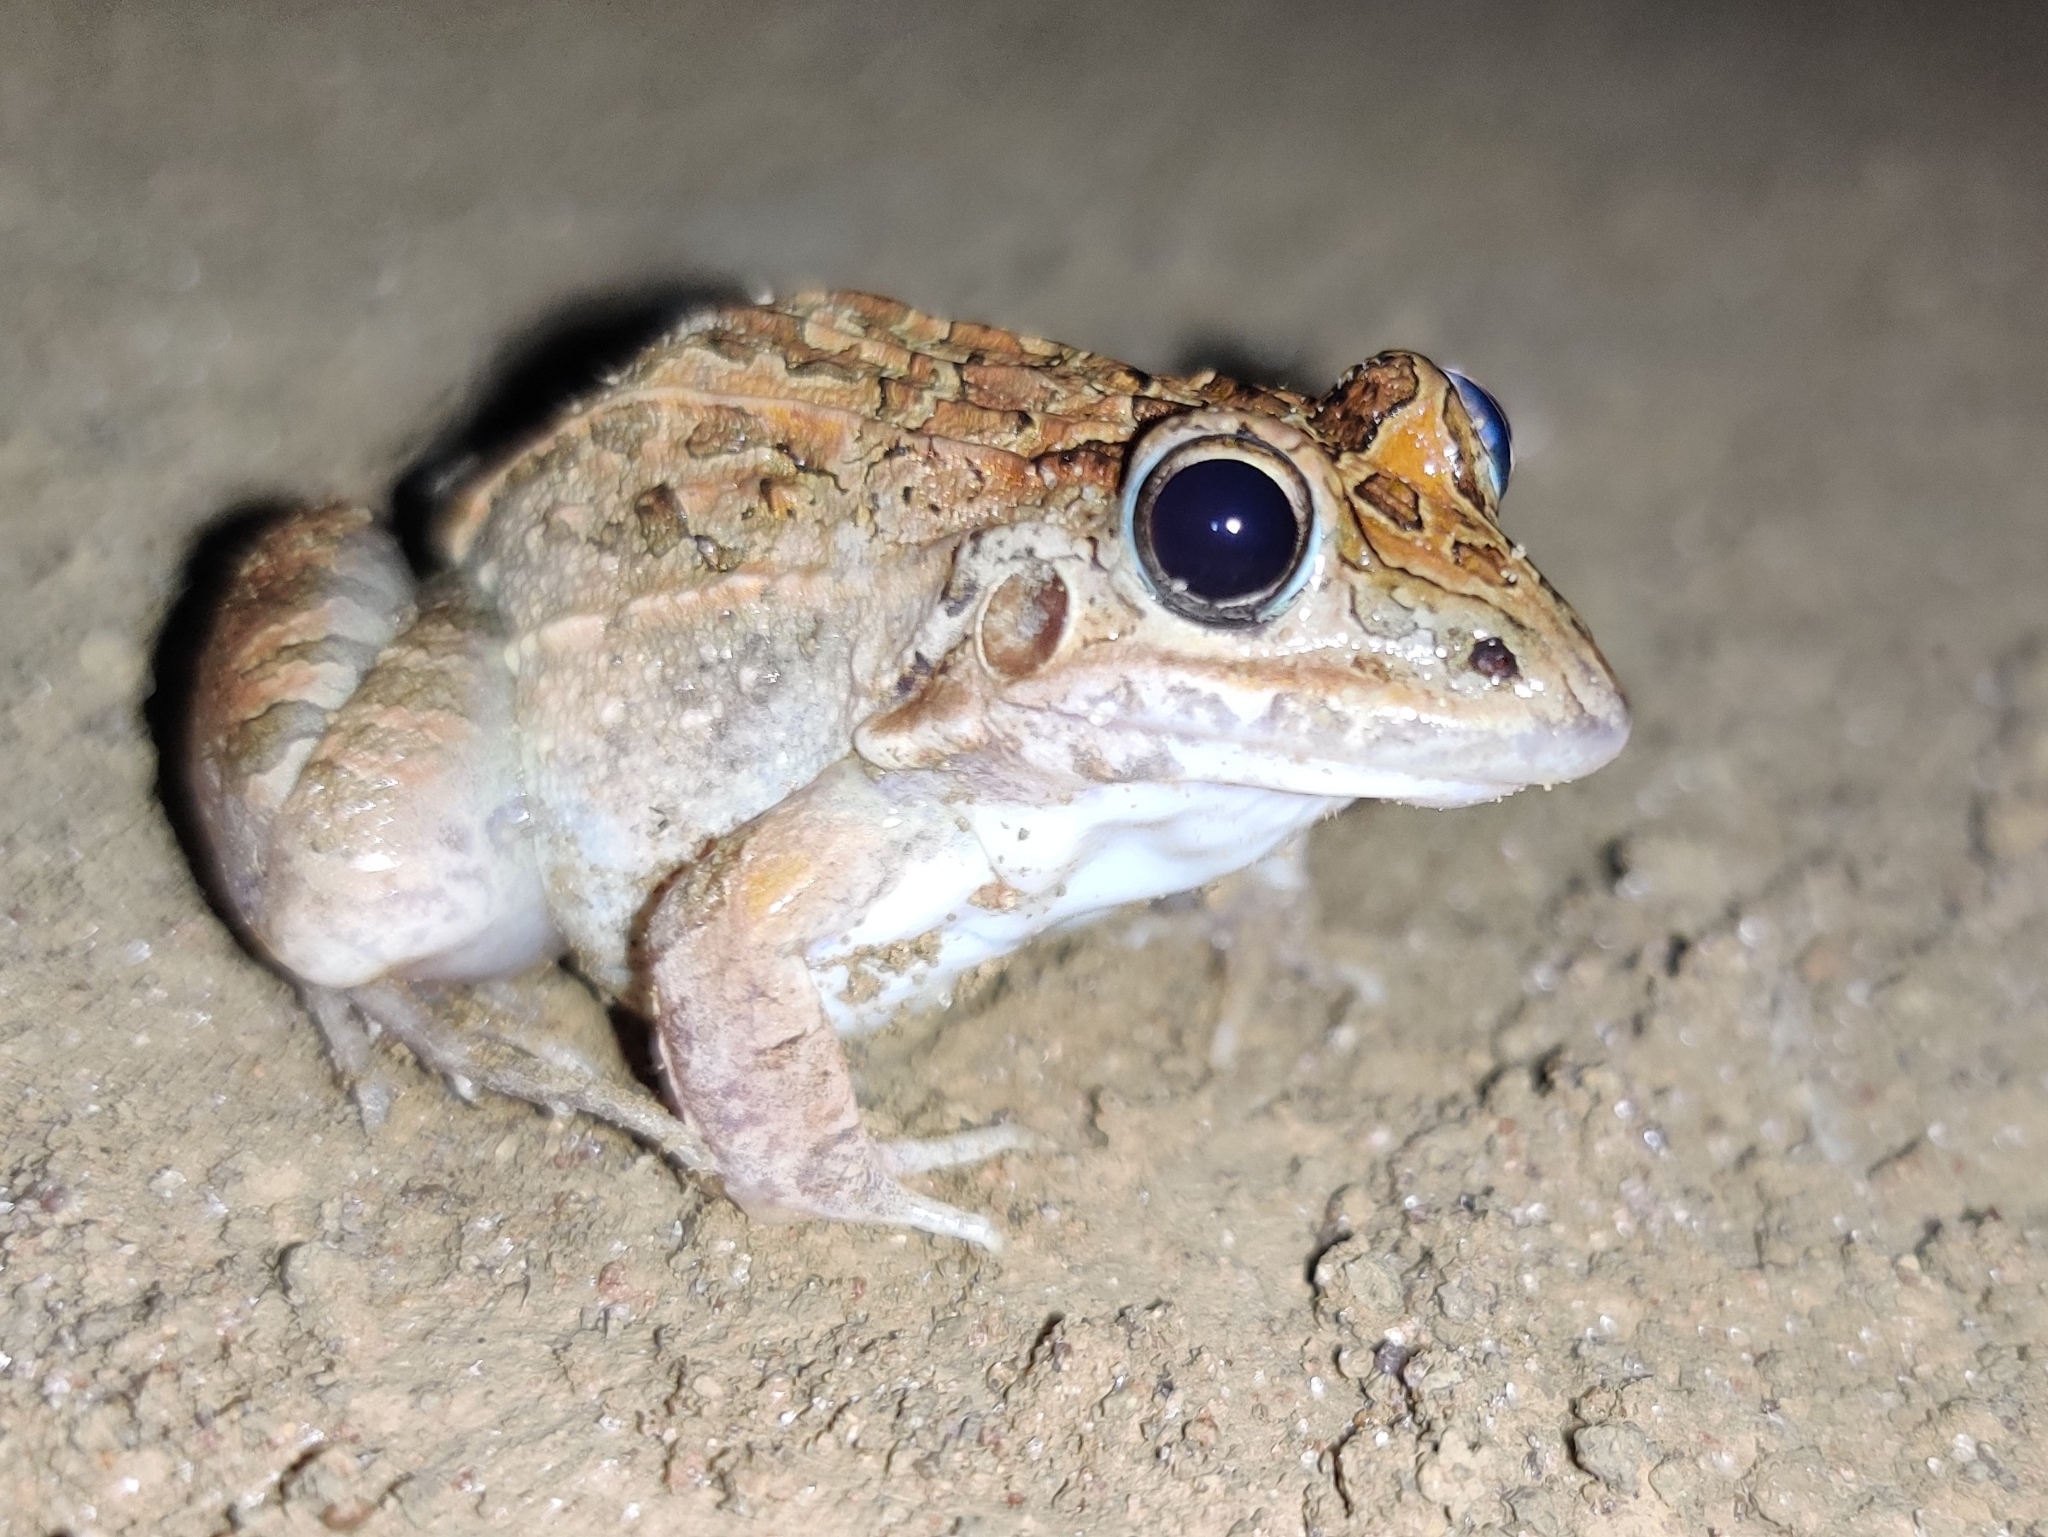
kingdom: Animalia
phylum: Chordata
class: Amphibia
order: Anura
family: Leptodactylidae
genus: Leptodactylus
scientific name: Leptodactylus fuscus
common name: Rufous frog
